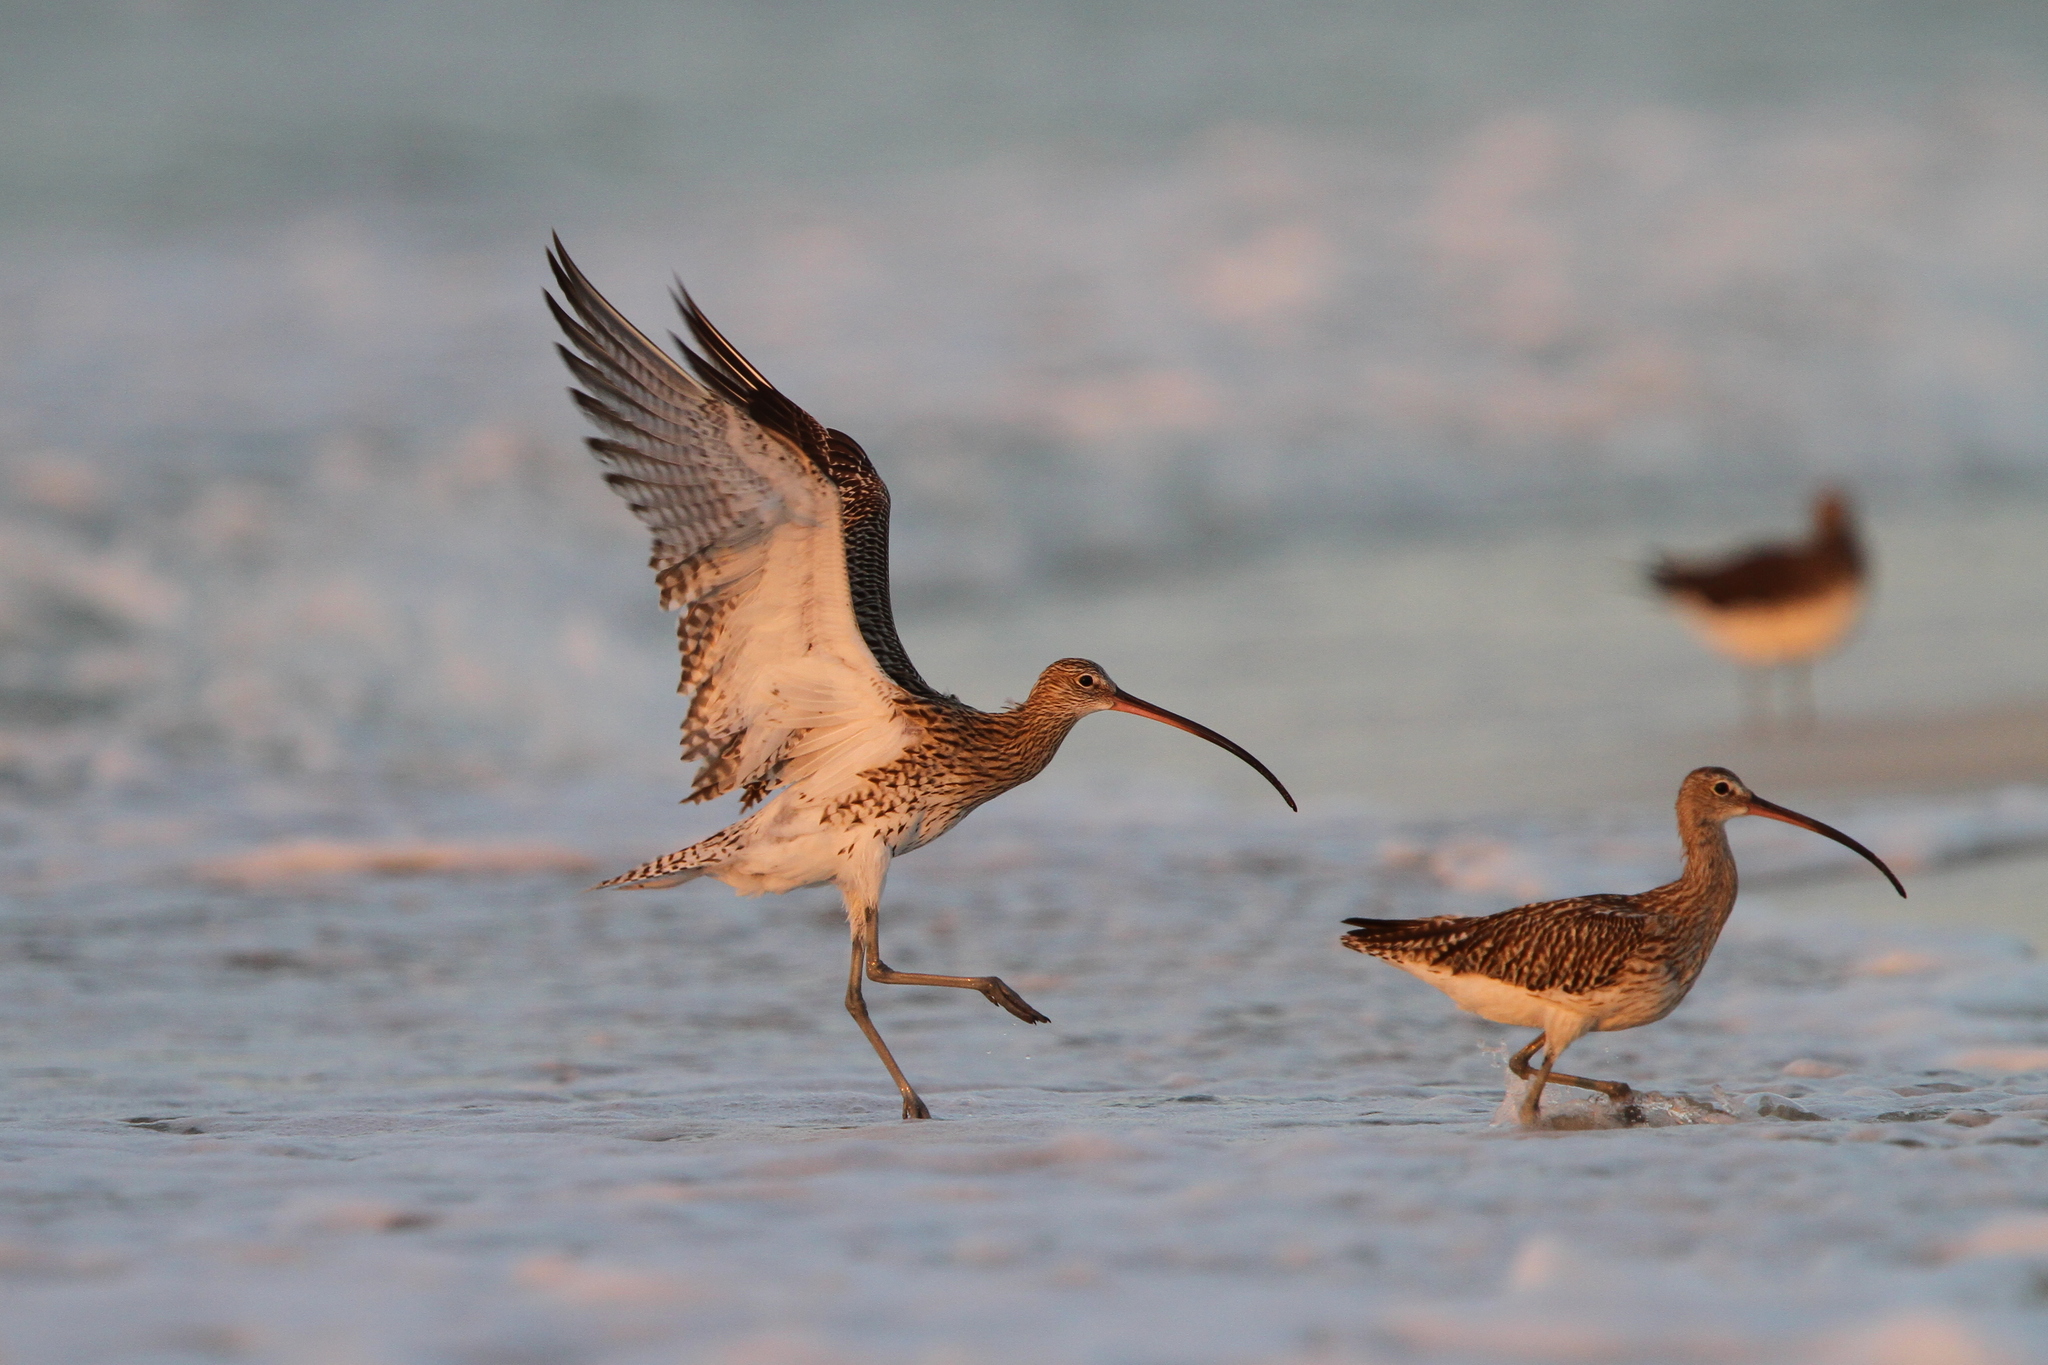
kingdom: Animalia
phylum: Chordata
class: Aves
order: Charadriiformes
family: Scolopacidae
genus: Numenius
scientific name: Numenius arquata
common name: Eurasian curlew
